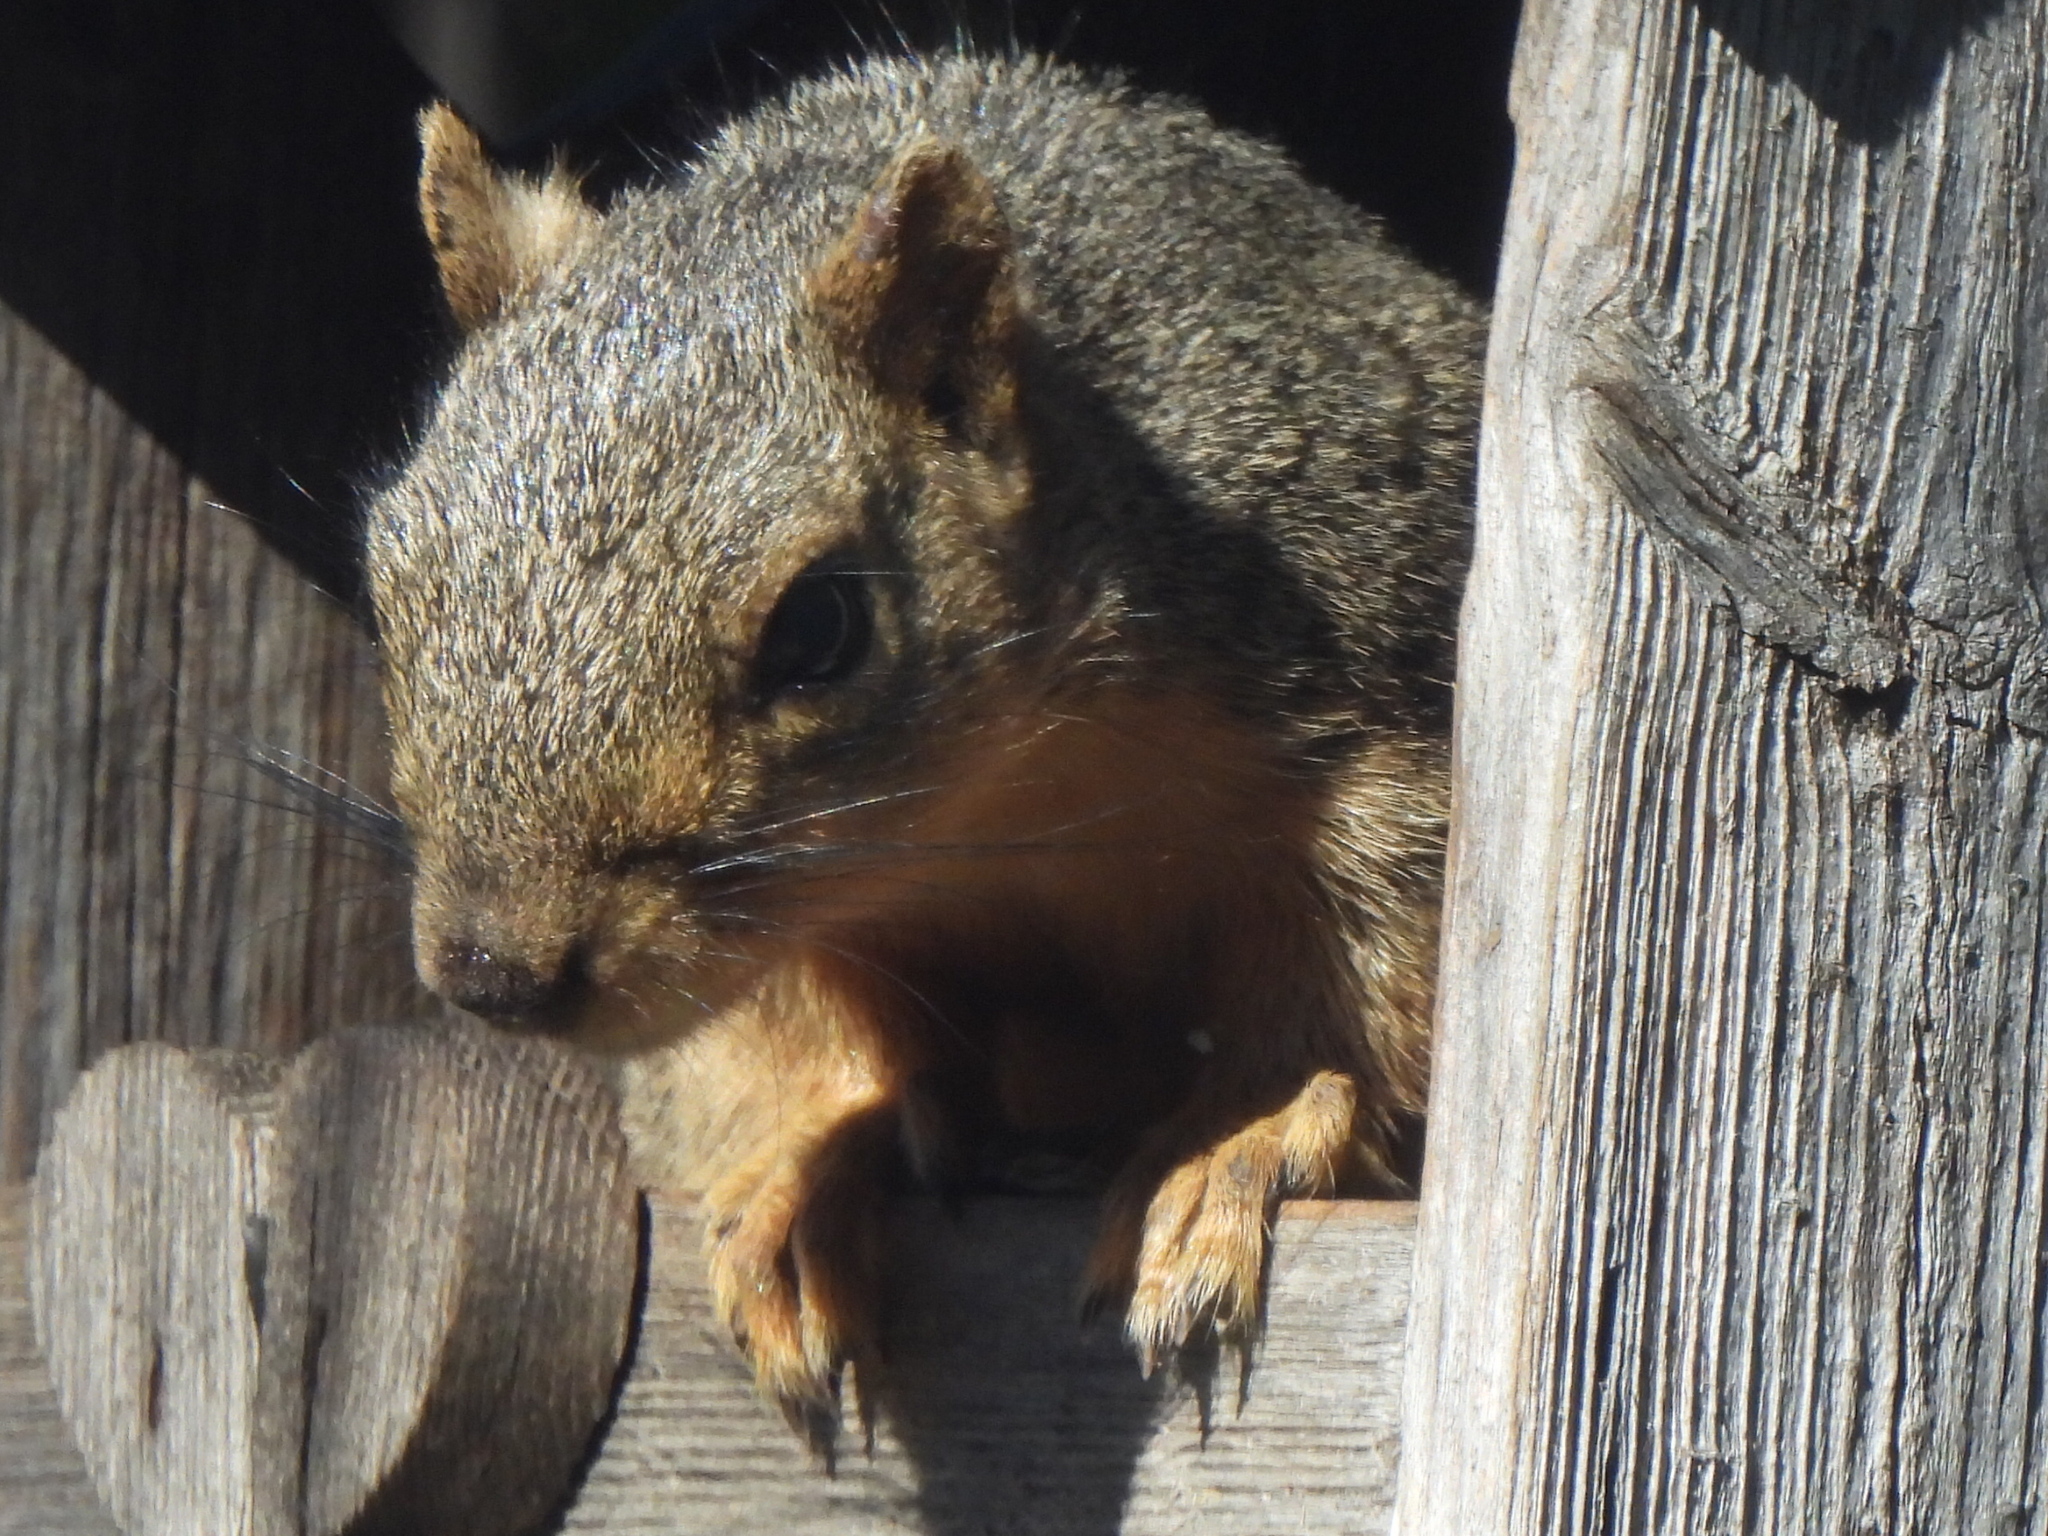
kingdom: Animalia
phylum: Chordata
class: Mammalia
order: Rodentia
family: Sciuridae
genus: Sciurus
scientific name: Sciurus niger
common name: Fox squirrel
